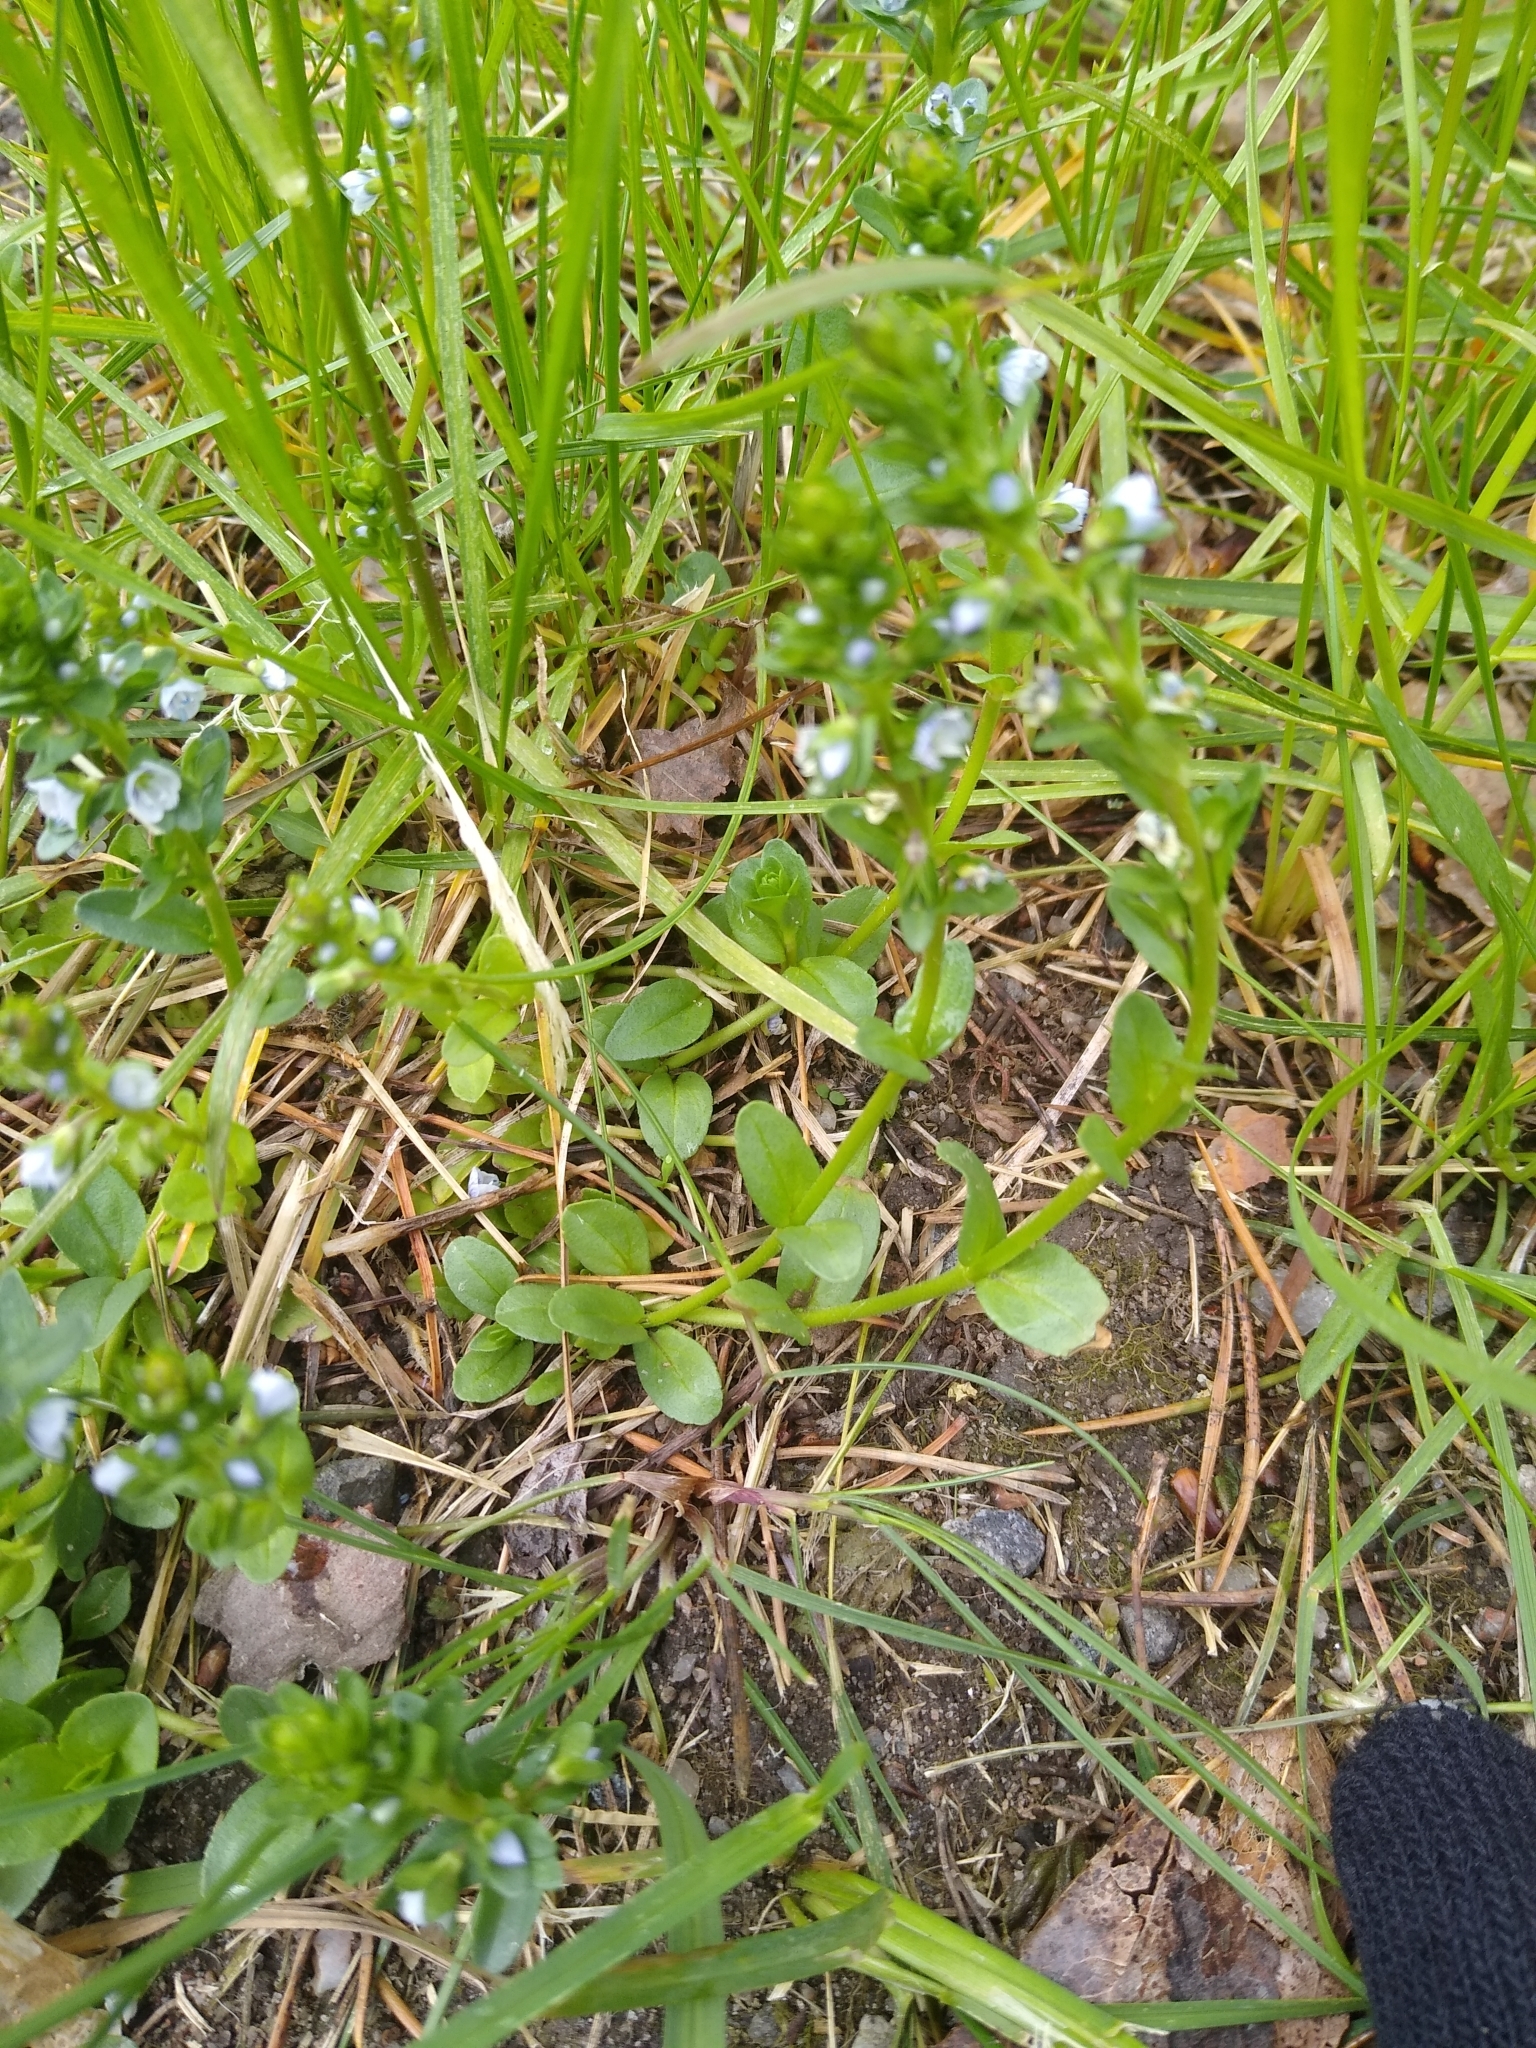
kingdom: Plantae
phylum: Tracheophyta
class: Magnoliopsida
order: Lamiales
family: Plantaginaceae
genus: Veronica
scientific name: Veronica serpyllifolia
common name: Thyme-leaved speedwell
